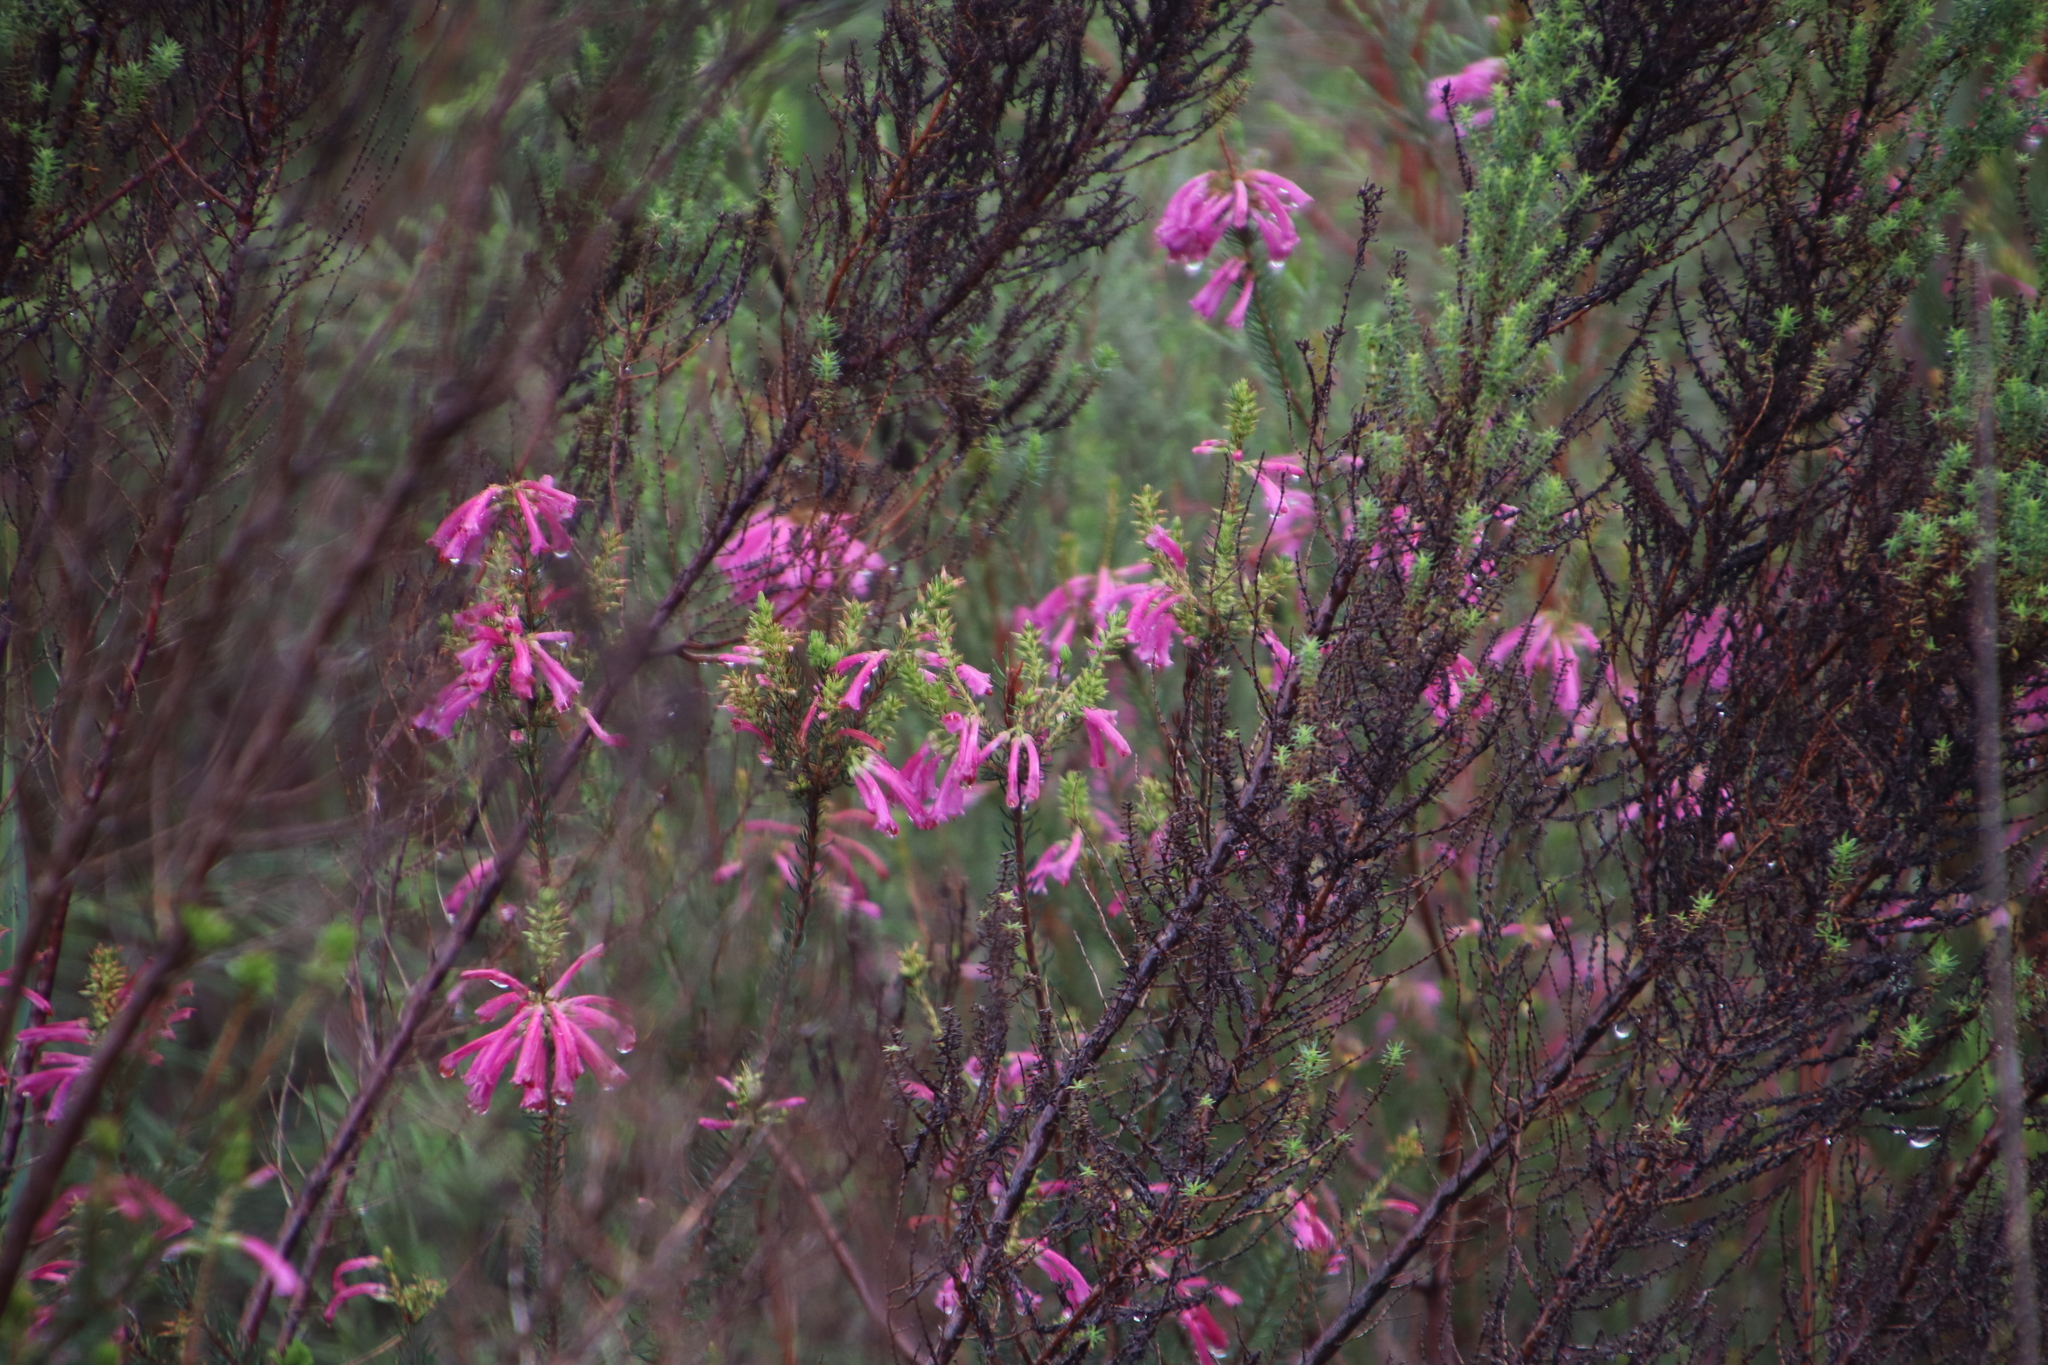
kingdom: Plantae
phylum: Tracheophyta
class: Magnoliopsida
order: Ericales
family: Ericaceae
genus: Erica
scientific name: Erica abietina
